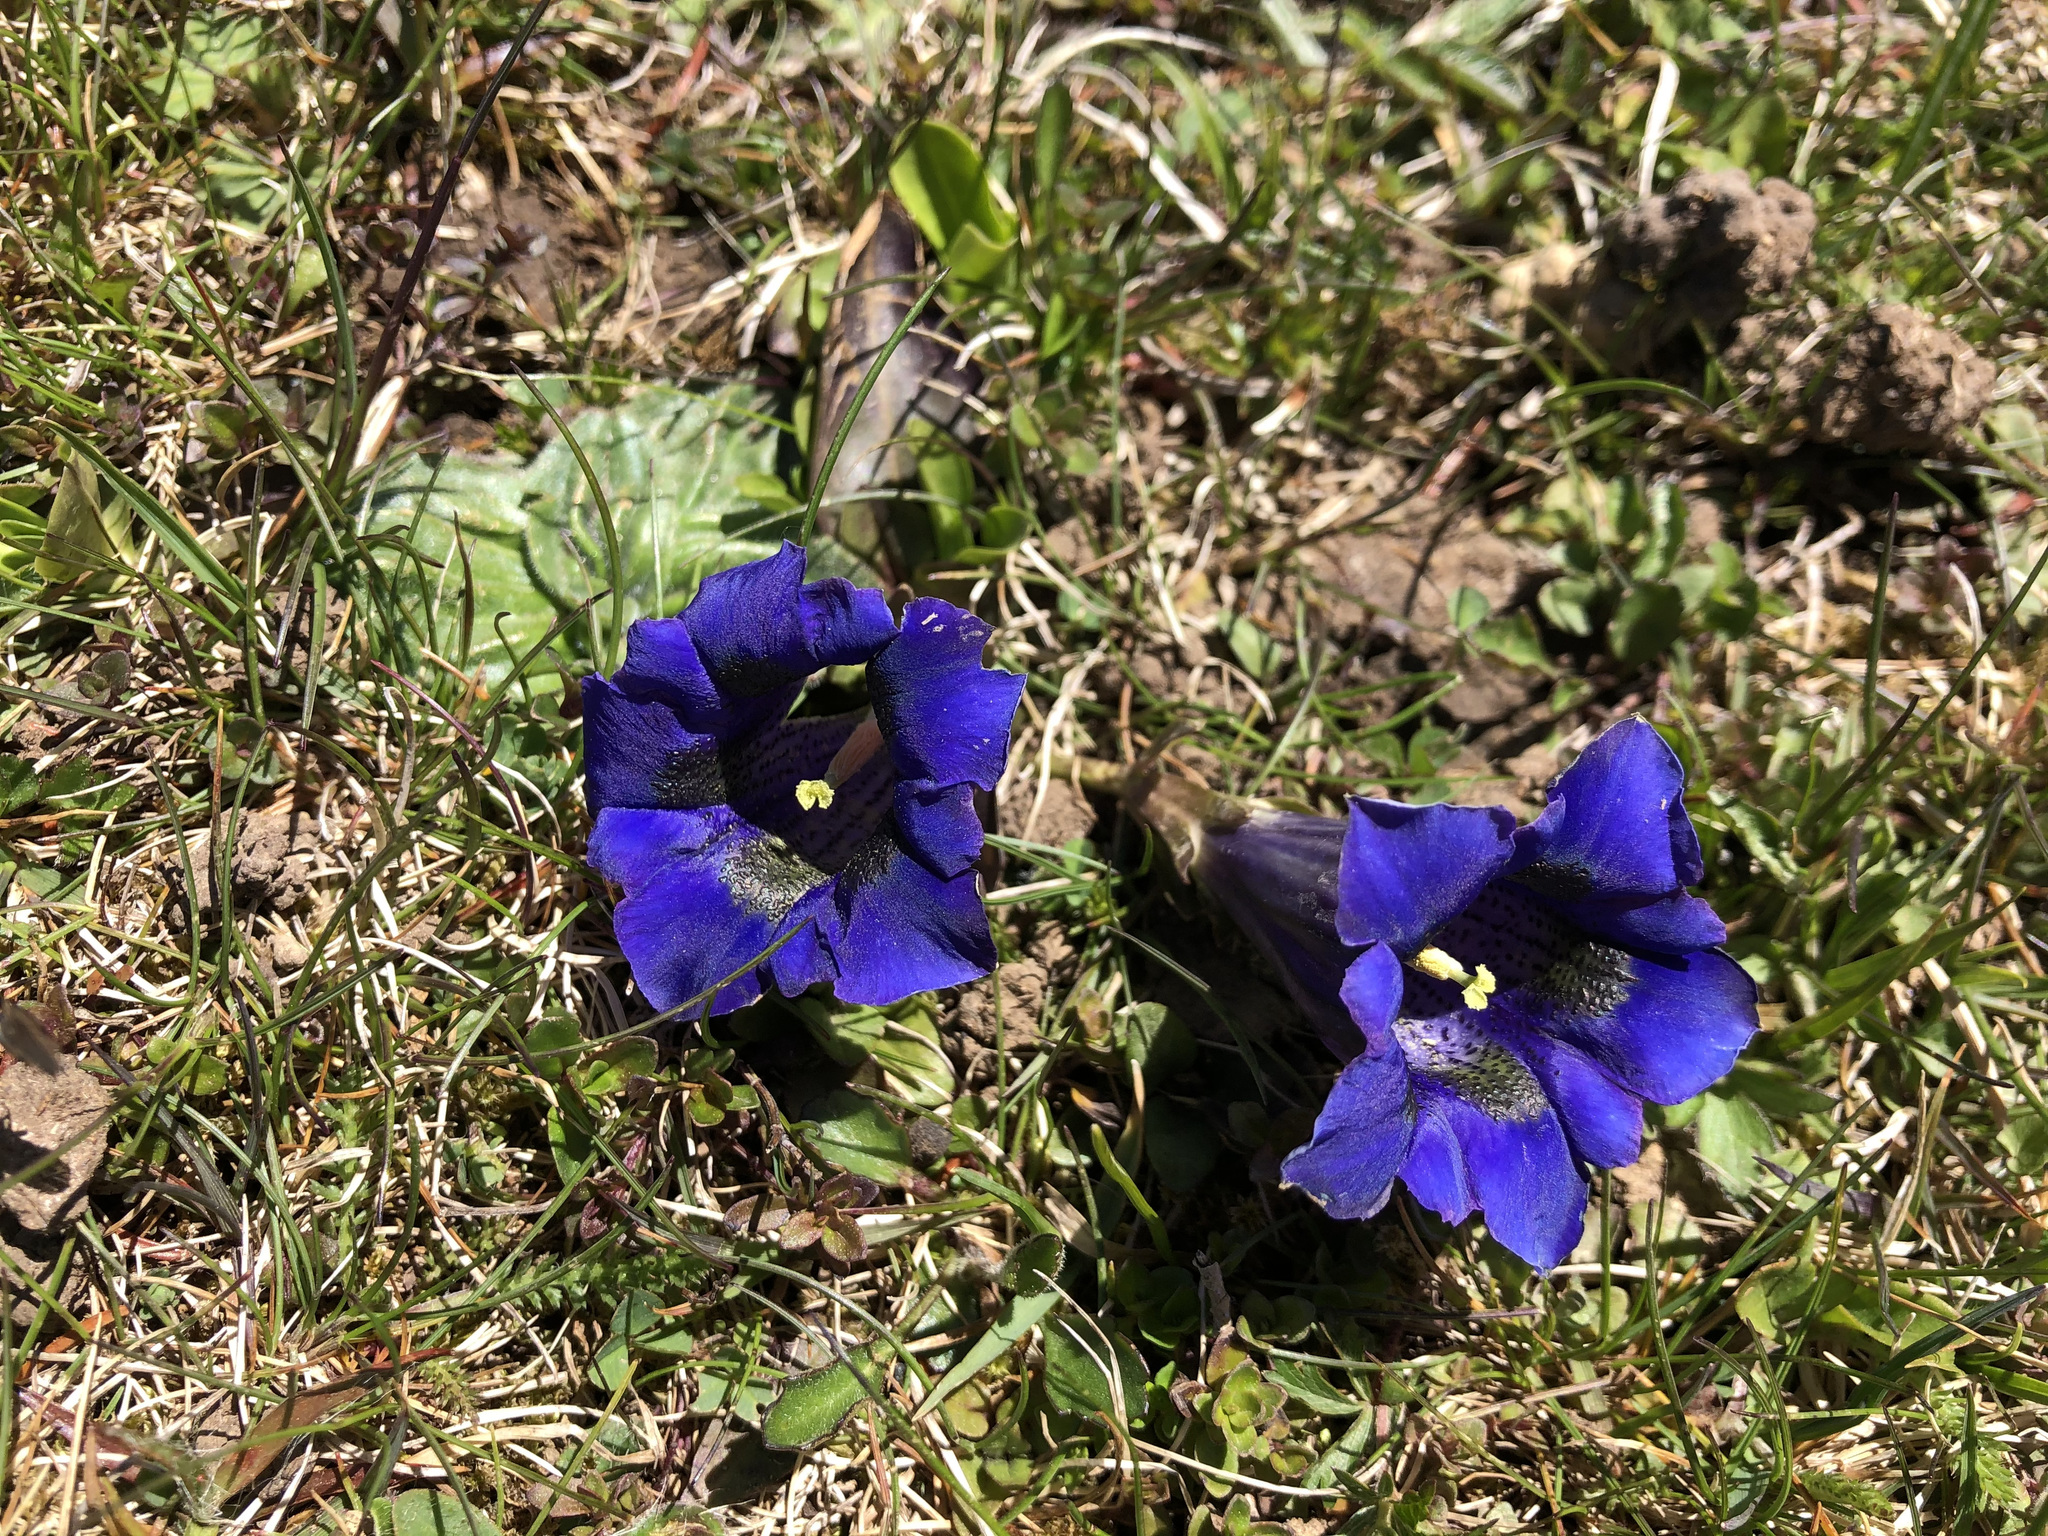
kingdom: Plantae
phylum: Tracheophyta
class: Magnoliopsida
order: Gentianales
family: Gentianaceae
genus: Gentiana
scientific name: Gentiana acaulis
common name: Trumpet gentian
